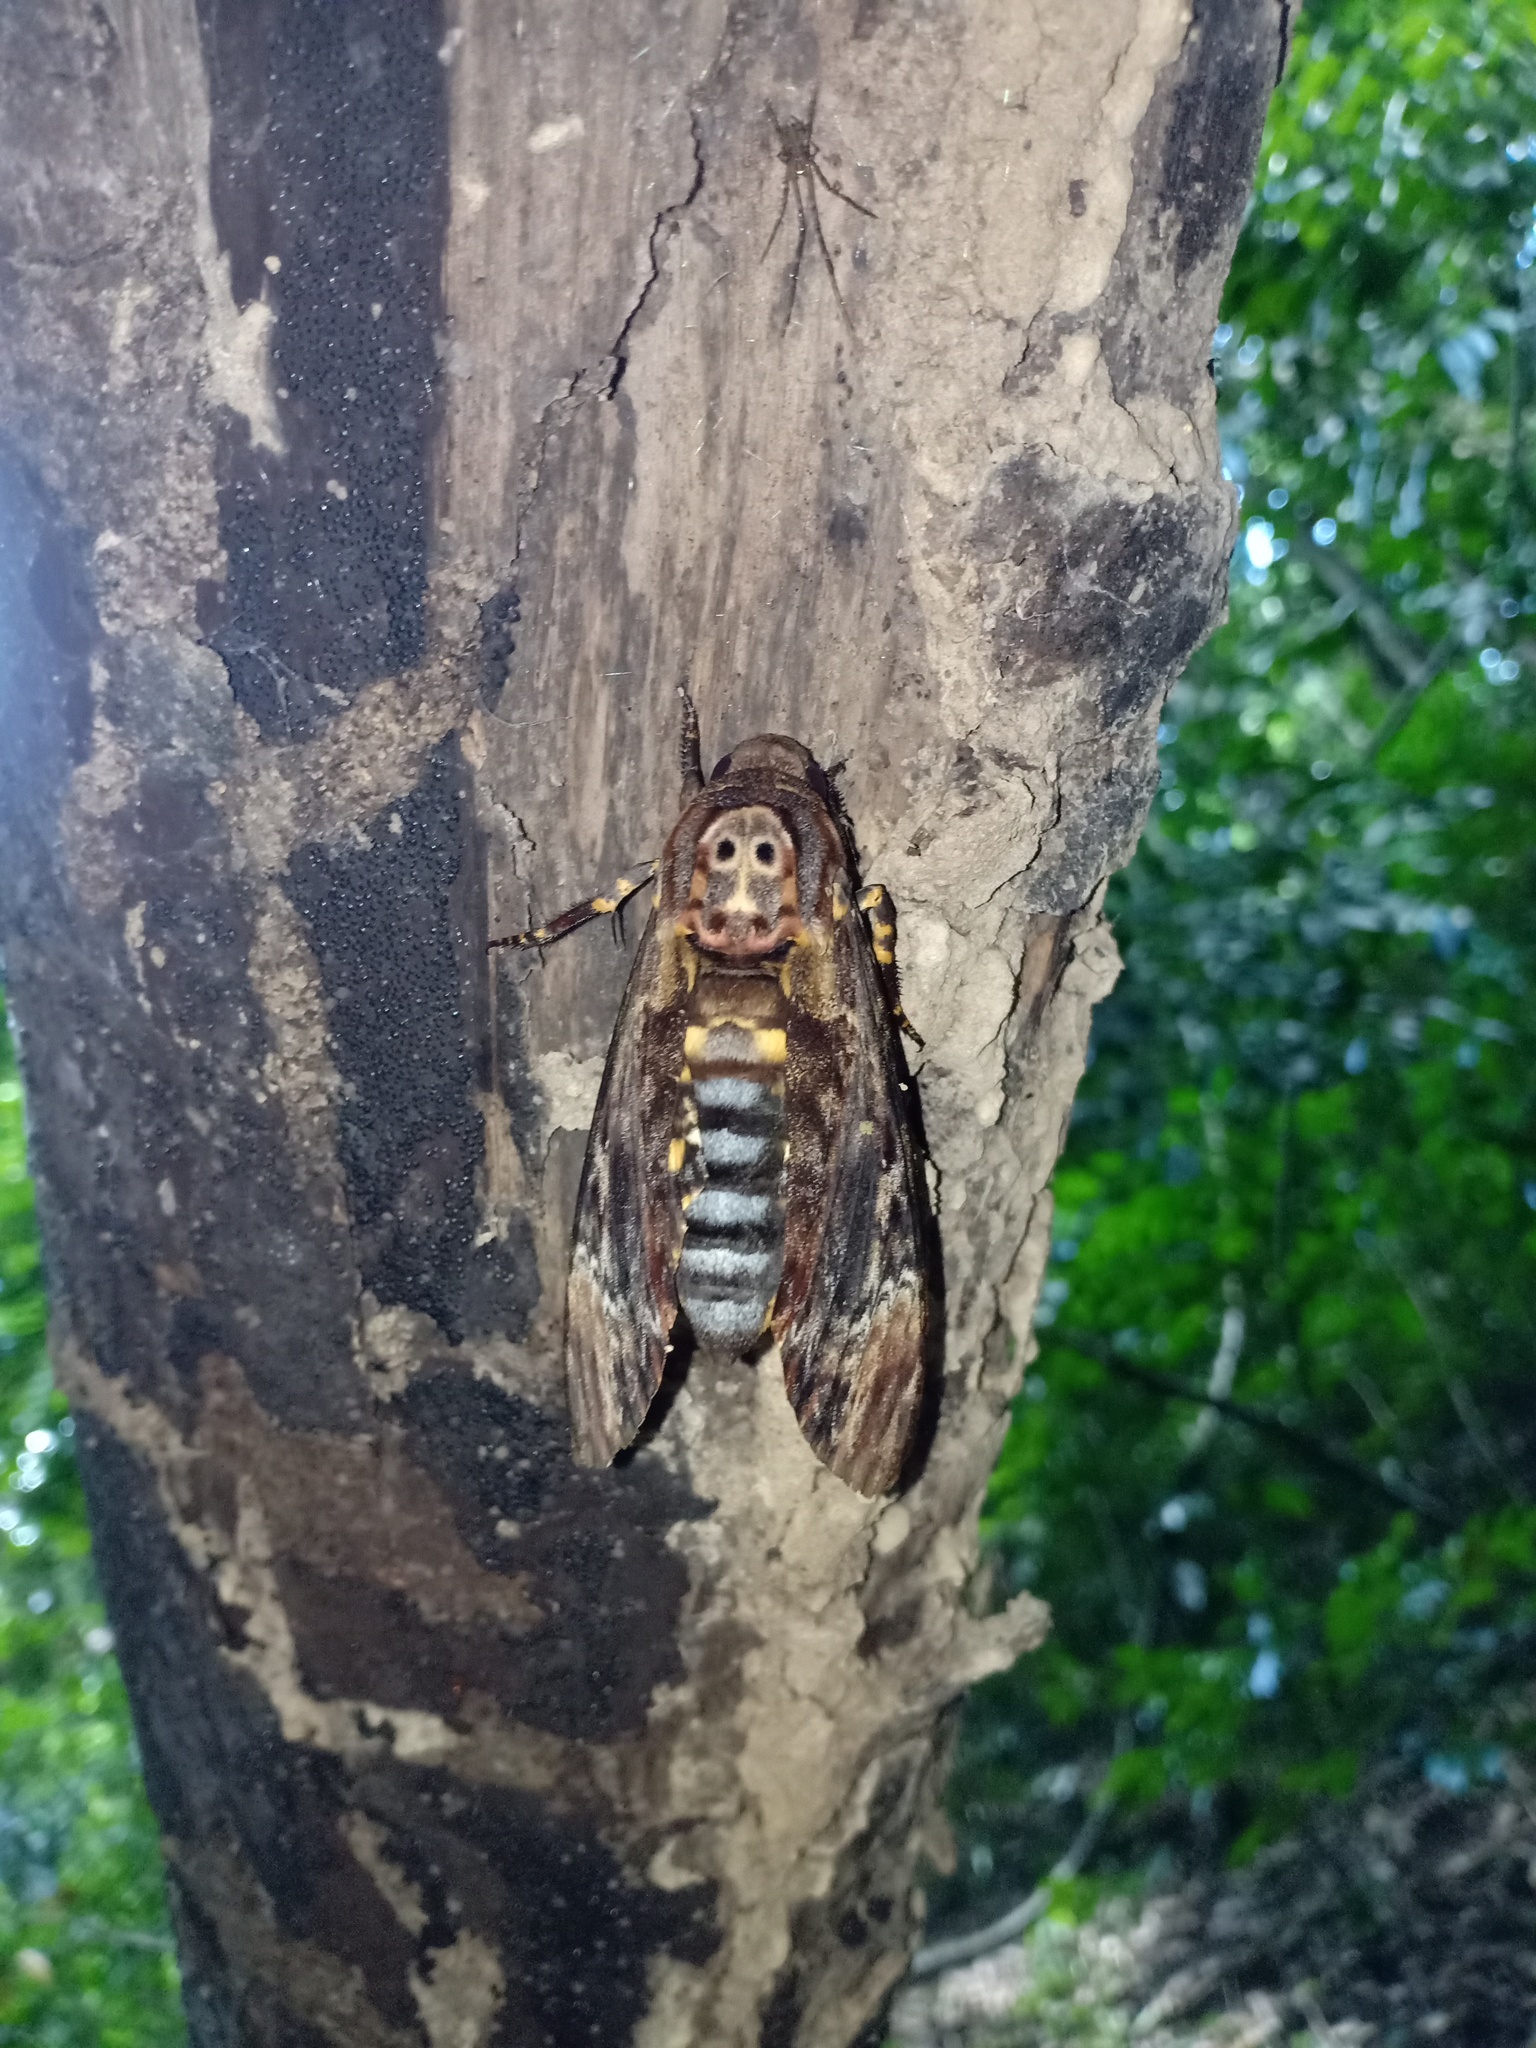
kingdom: Animalia
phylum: Arthropoda
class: Insecta
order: Lepidoptera
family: Sphingidae
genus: Acherontia
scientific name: Acherontia lachesis
